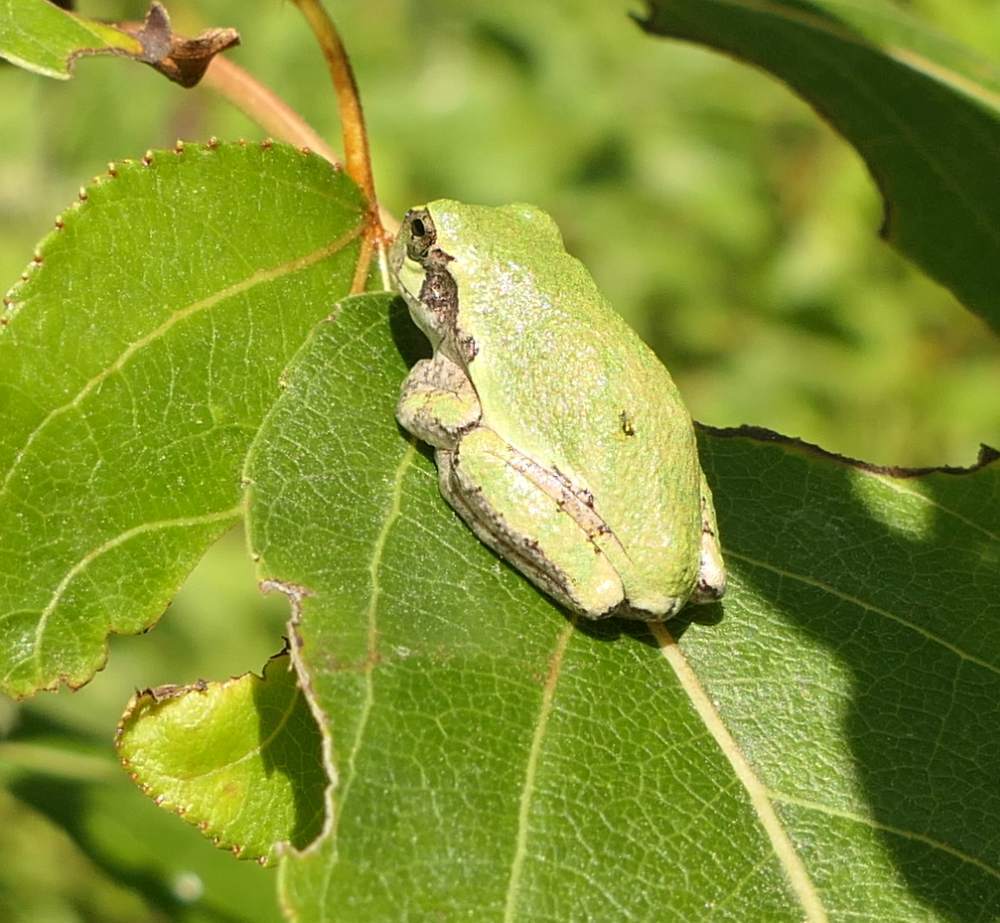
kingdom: Animalia
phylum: Chordata
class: Amphibia
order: Anura
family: Hylidae
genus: Dryophytes
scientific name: Dryophytes versicolor
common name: Gray treefrog
